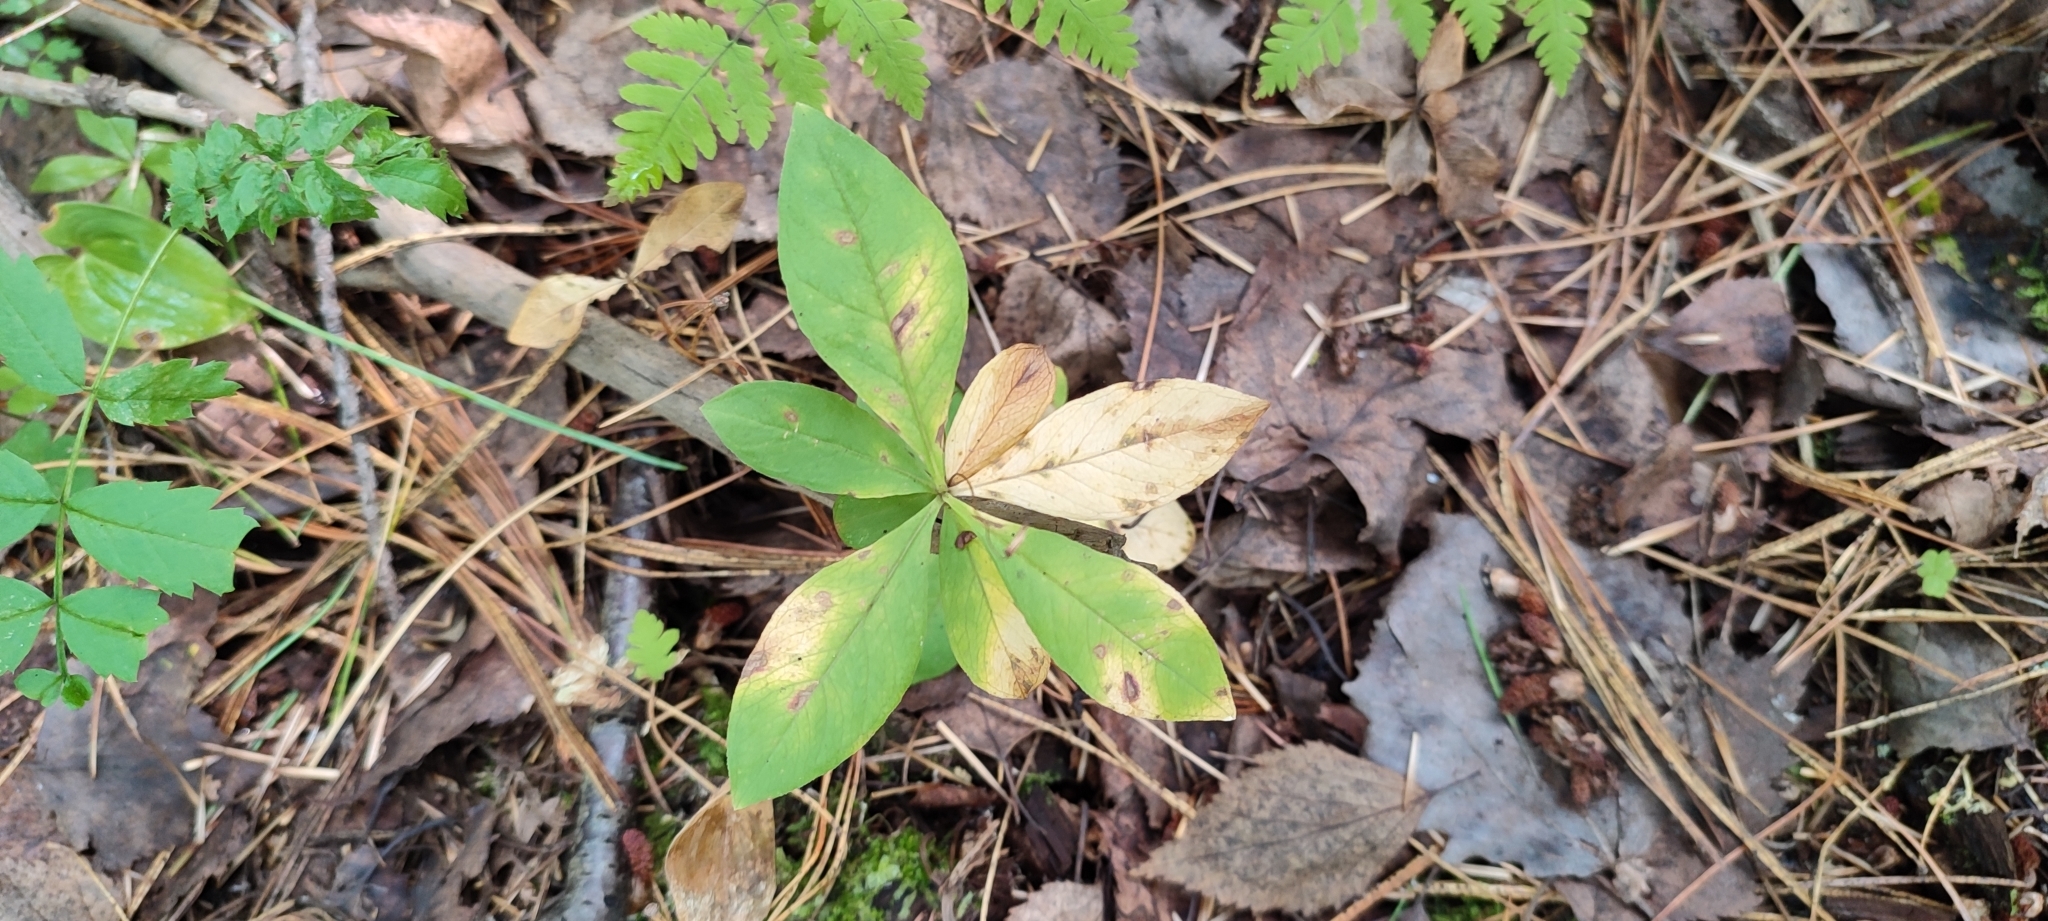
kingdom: Plantae
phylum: Tracheophyta
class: Magnoliopsida
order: Ericales
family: Primulaceae
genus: Lysimachia
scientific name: Lysimachia europaea
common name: Arctic starflower
